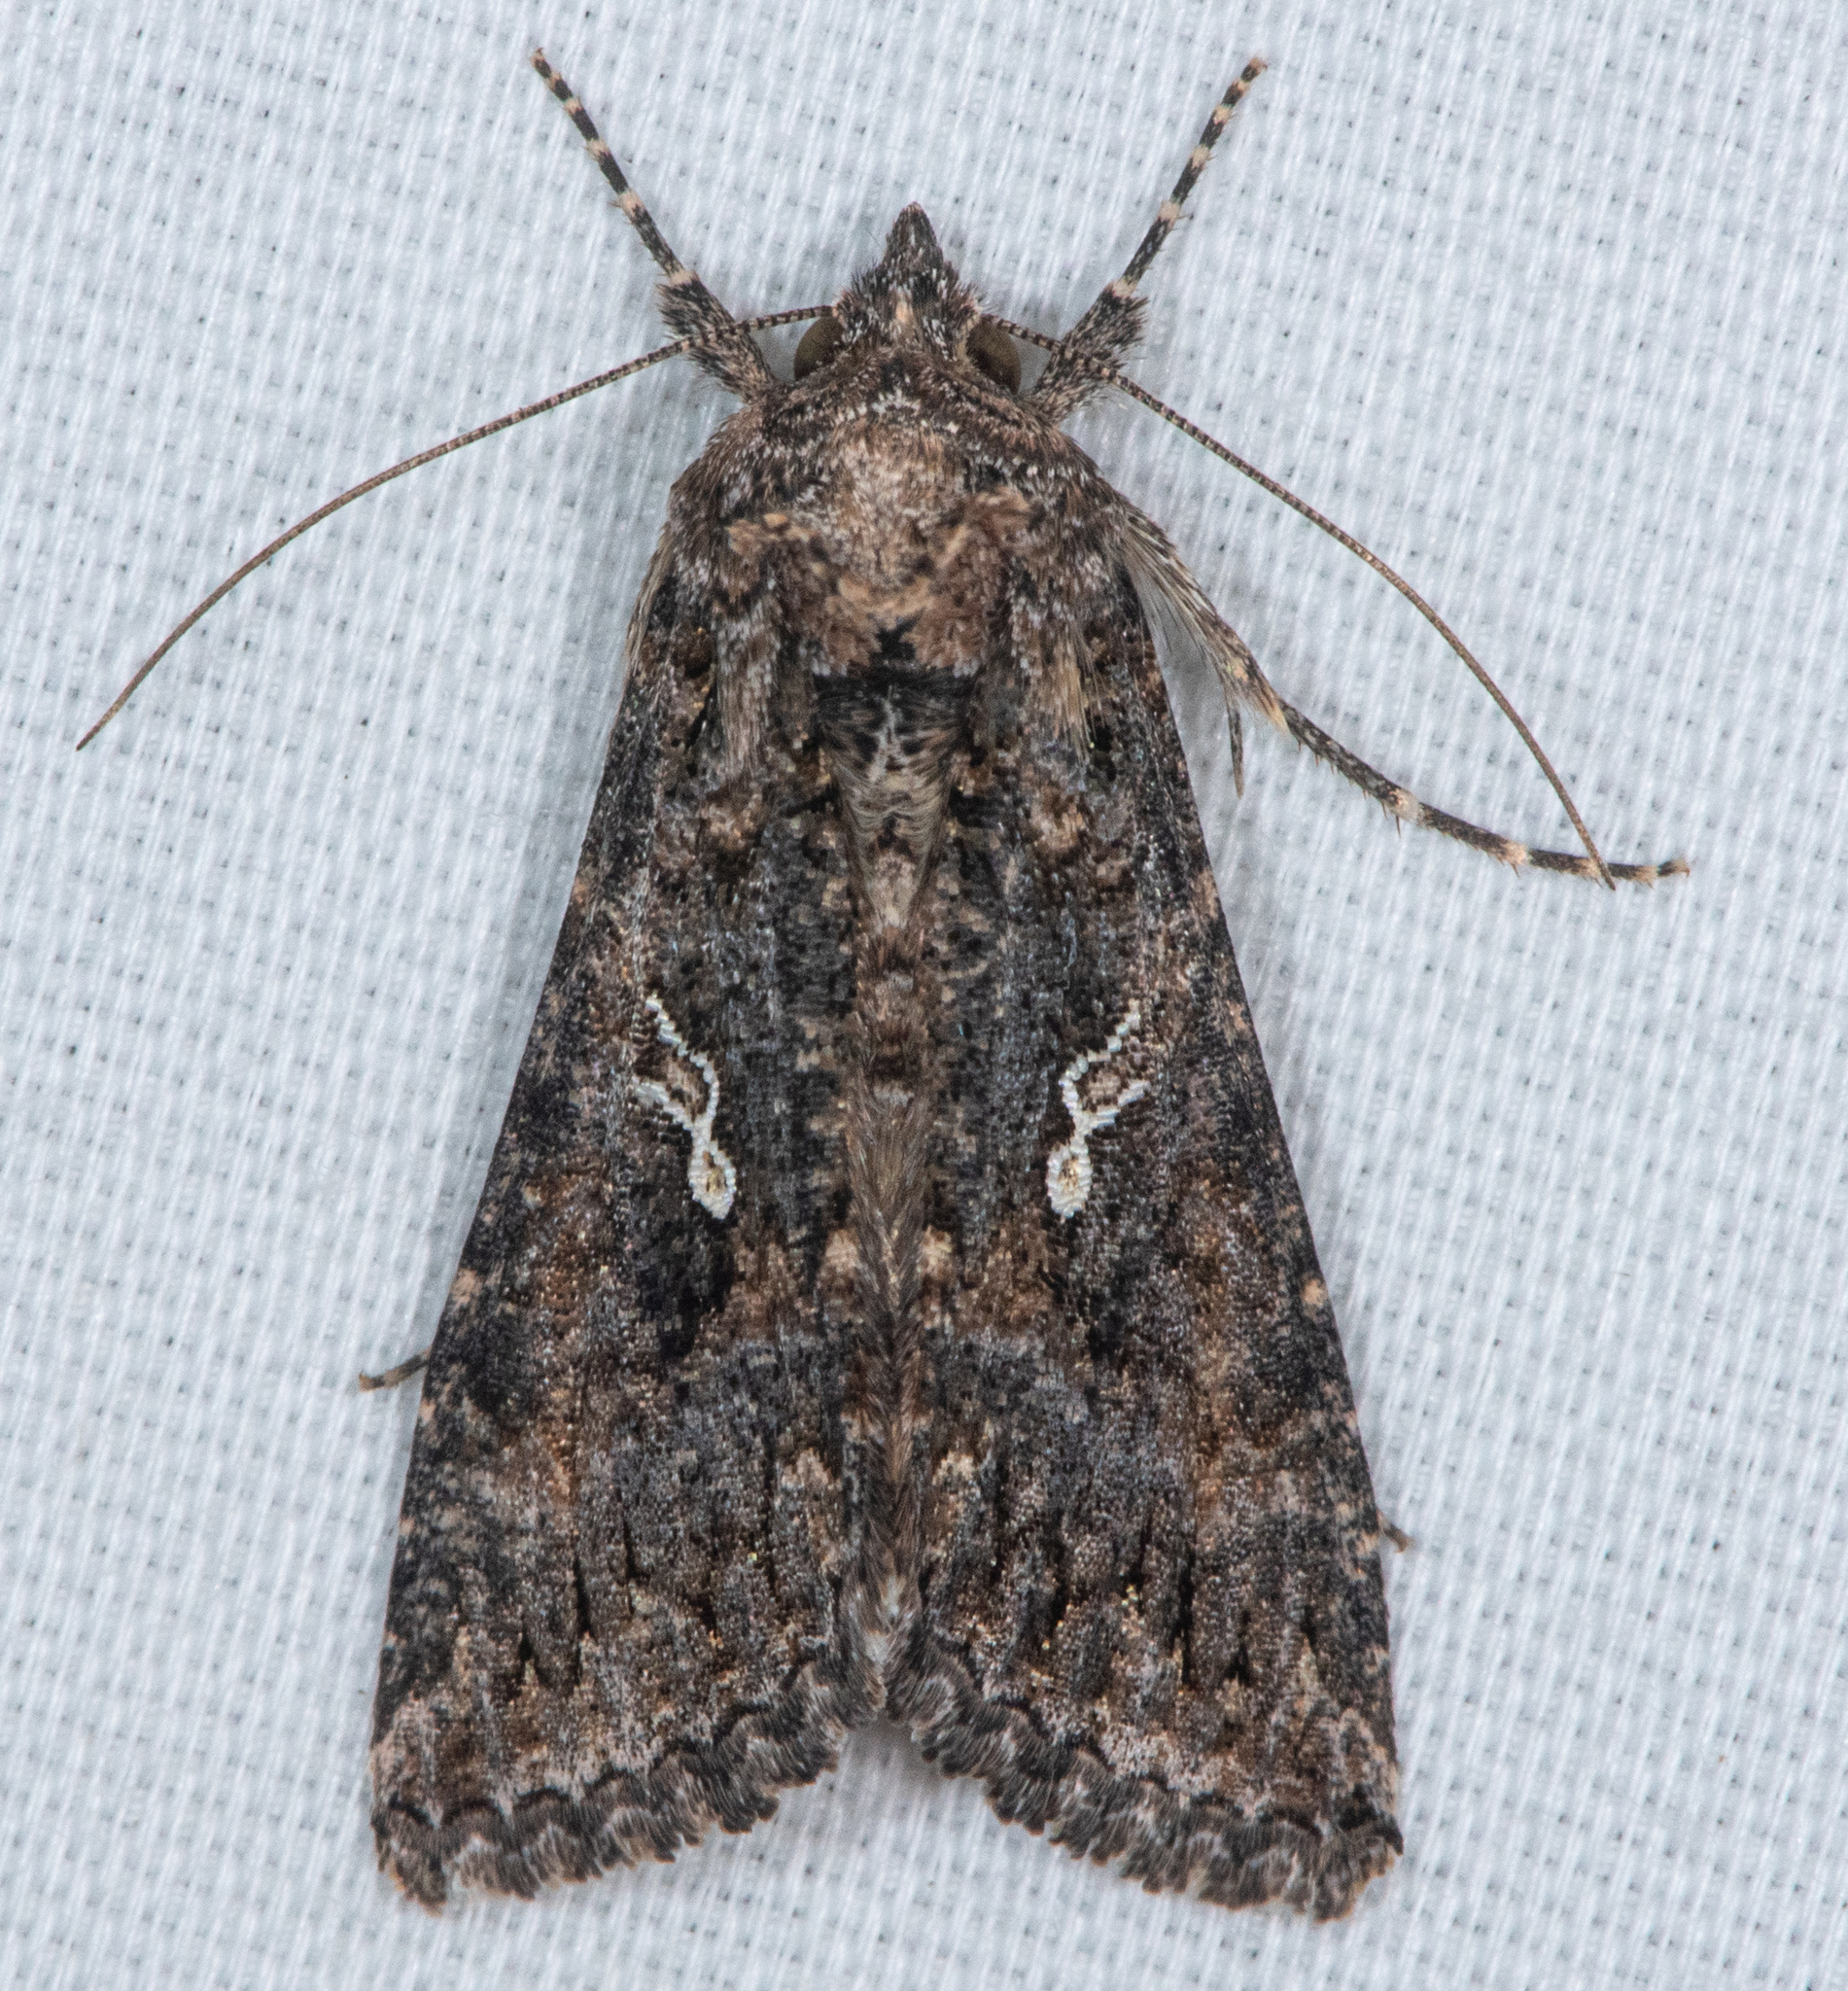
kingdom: Animalia
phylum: Arthropoda
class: Insecta
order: Lepidoptera
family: Noctuidae
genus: Trichoplusia
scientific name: Trichoplusia ni
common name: Ni moth
